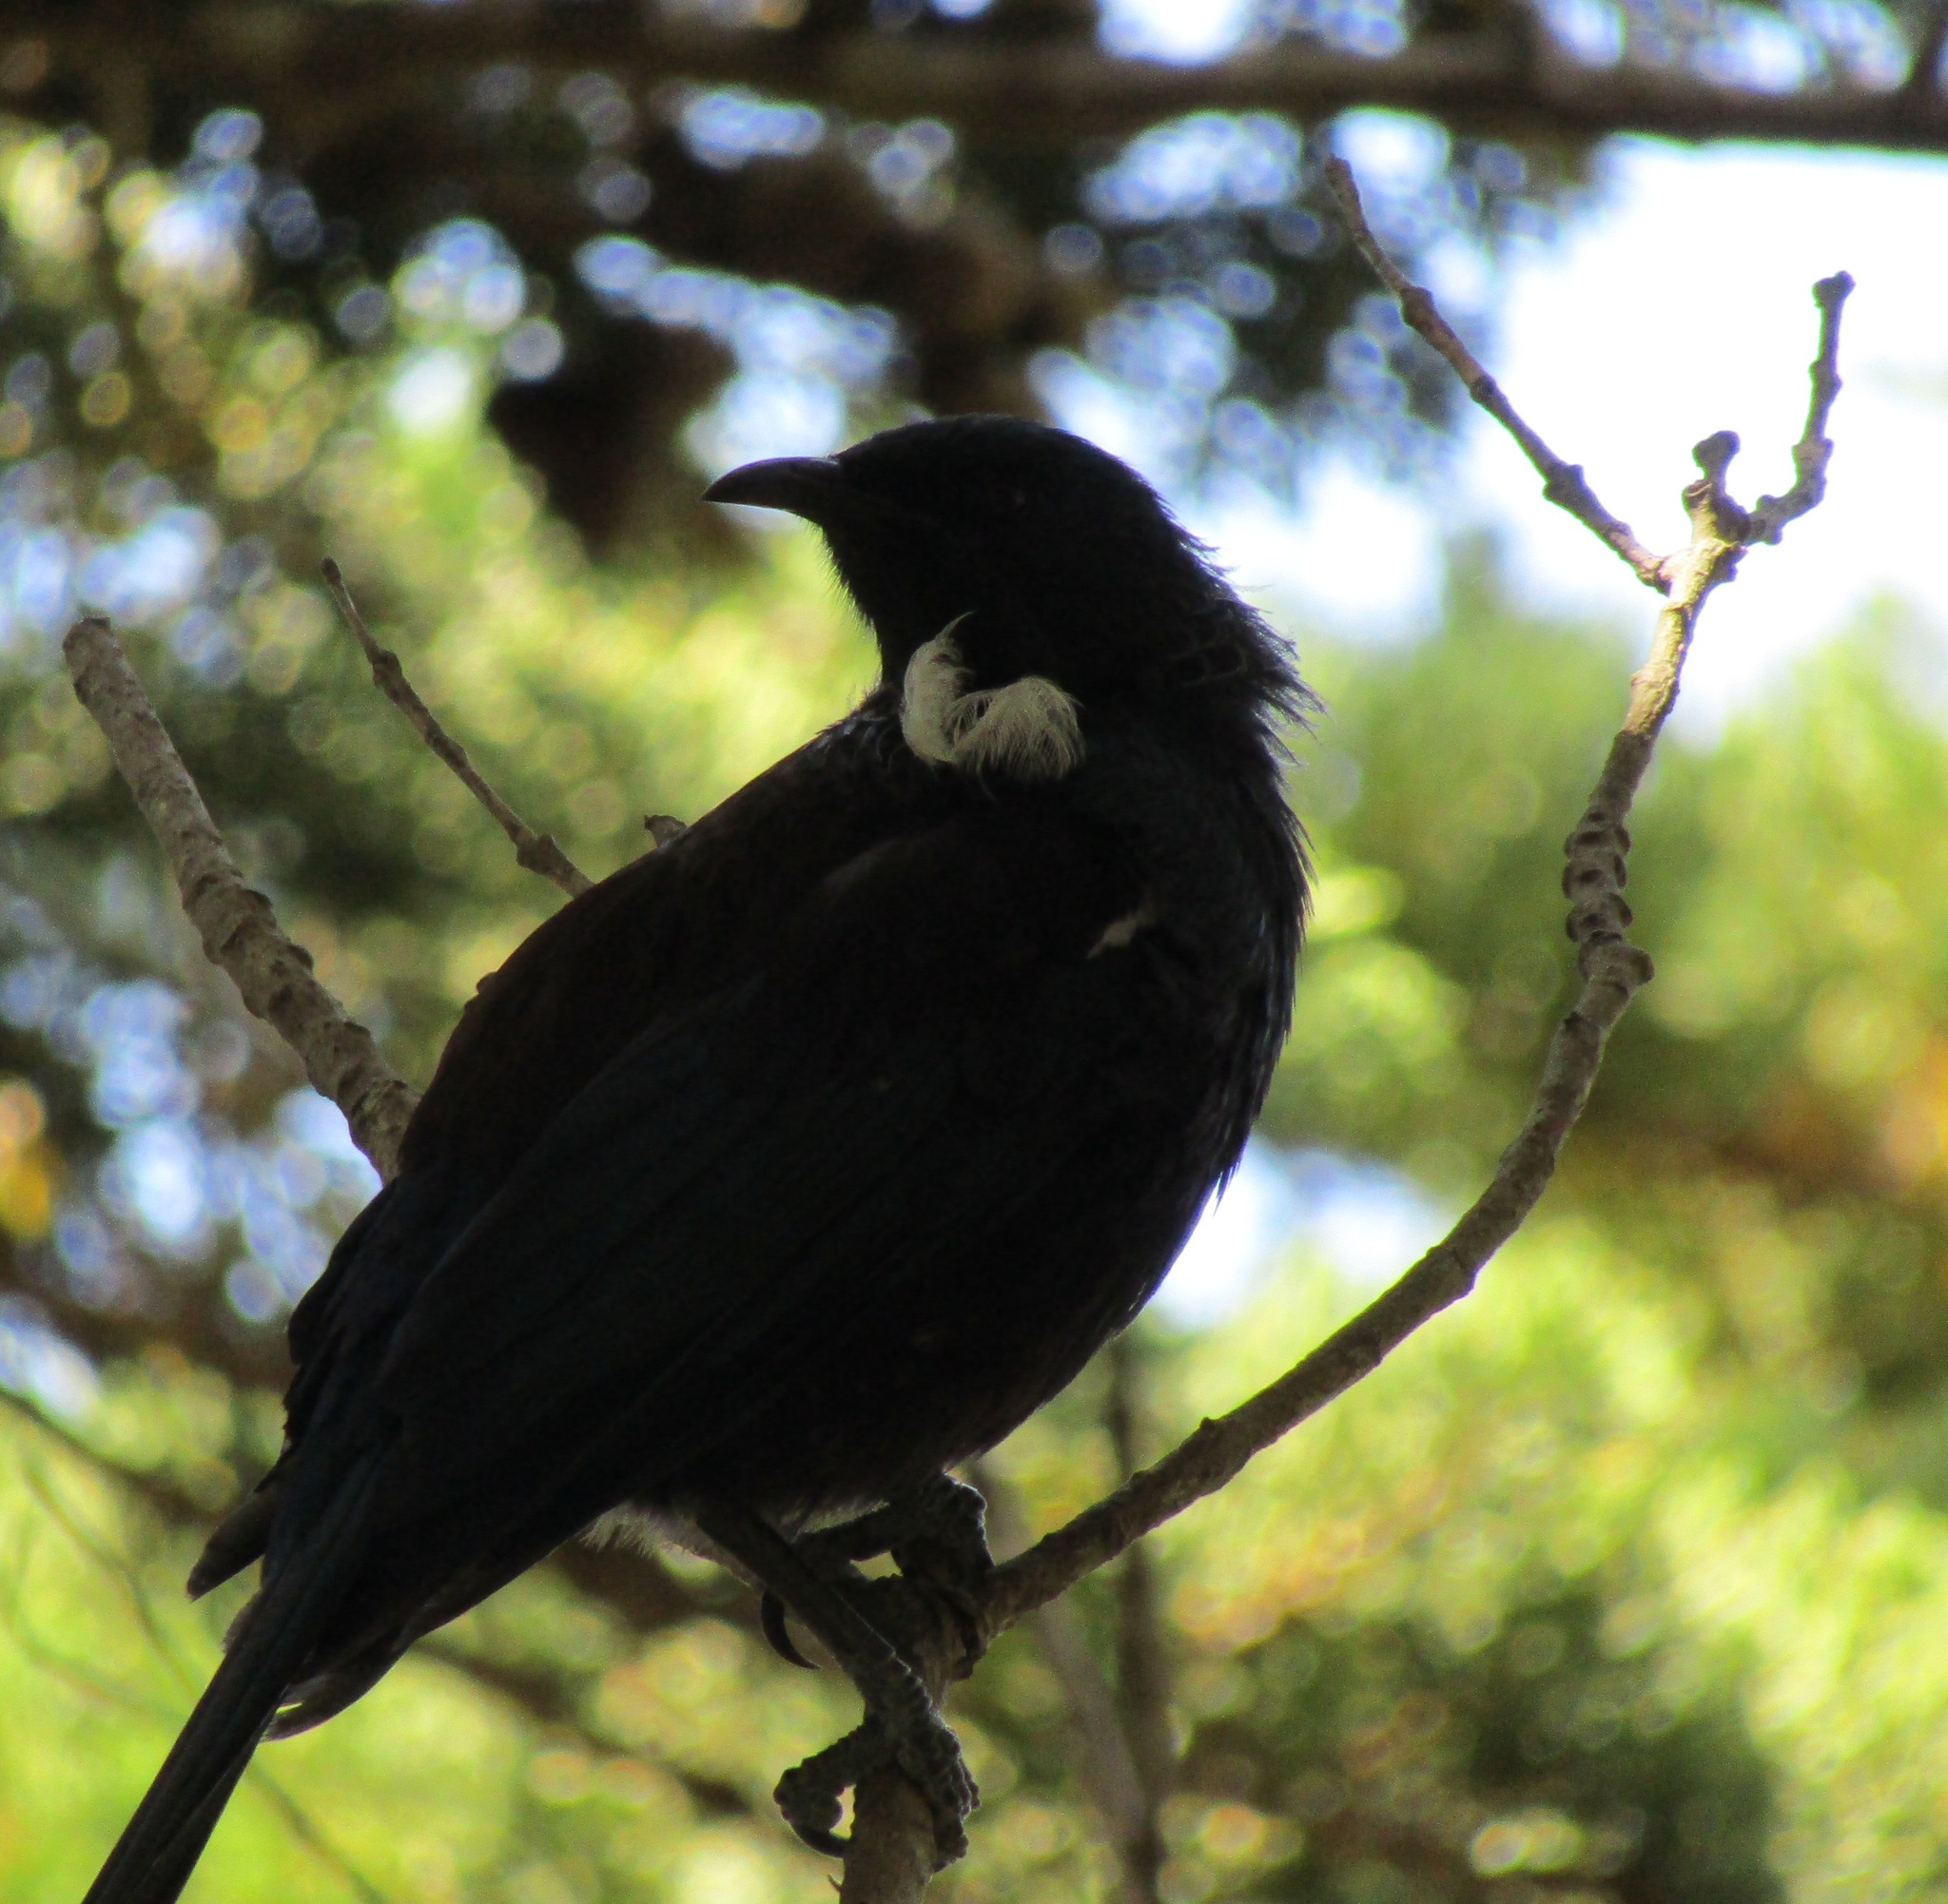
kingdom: Animalia
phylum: Chordata
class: Aves
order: Passeriformes
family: Meliphagidae
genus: Prosthemadera
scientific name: Prosthemadera novaeseelandiae
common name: Tui
